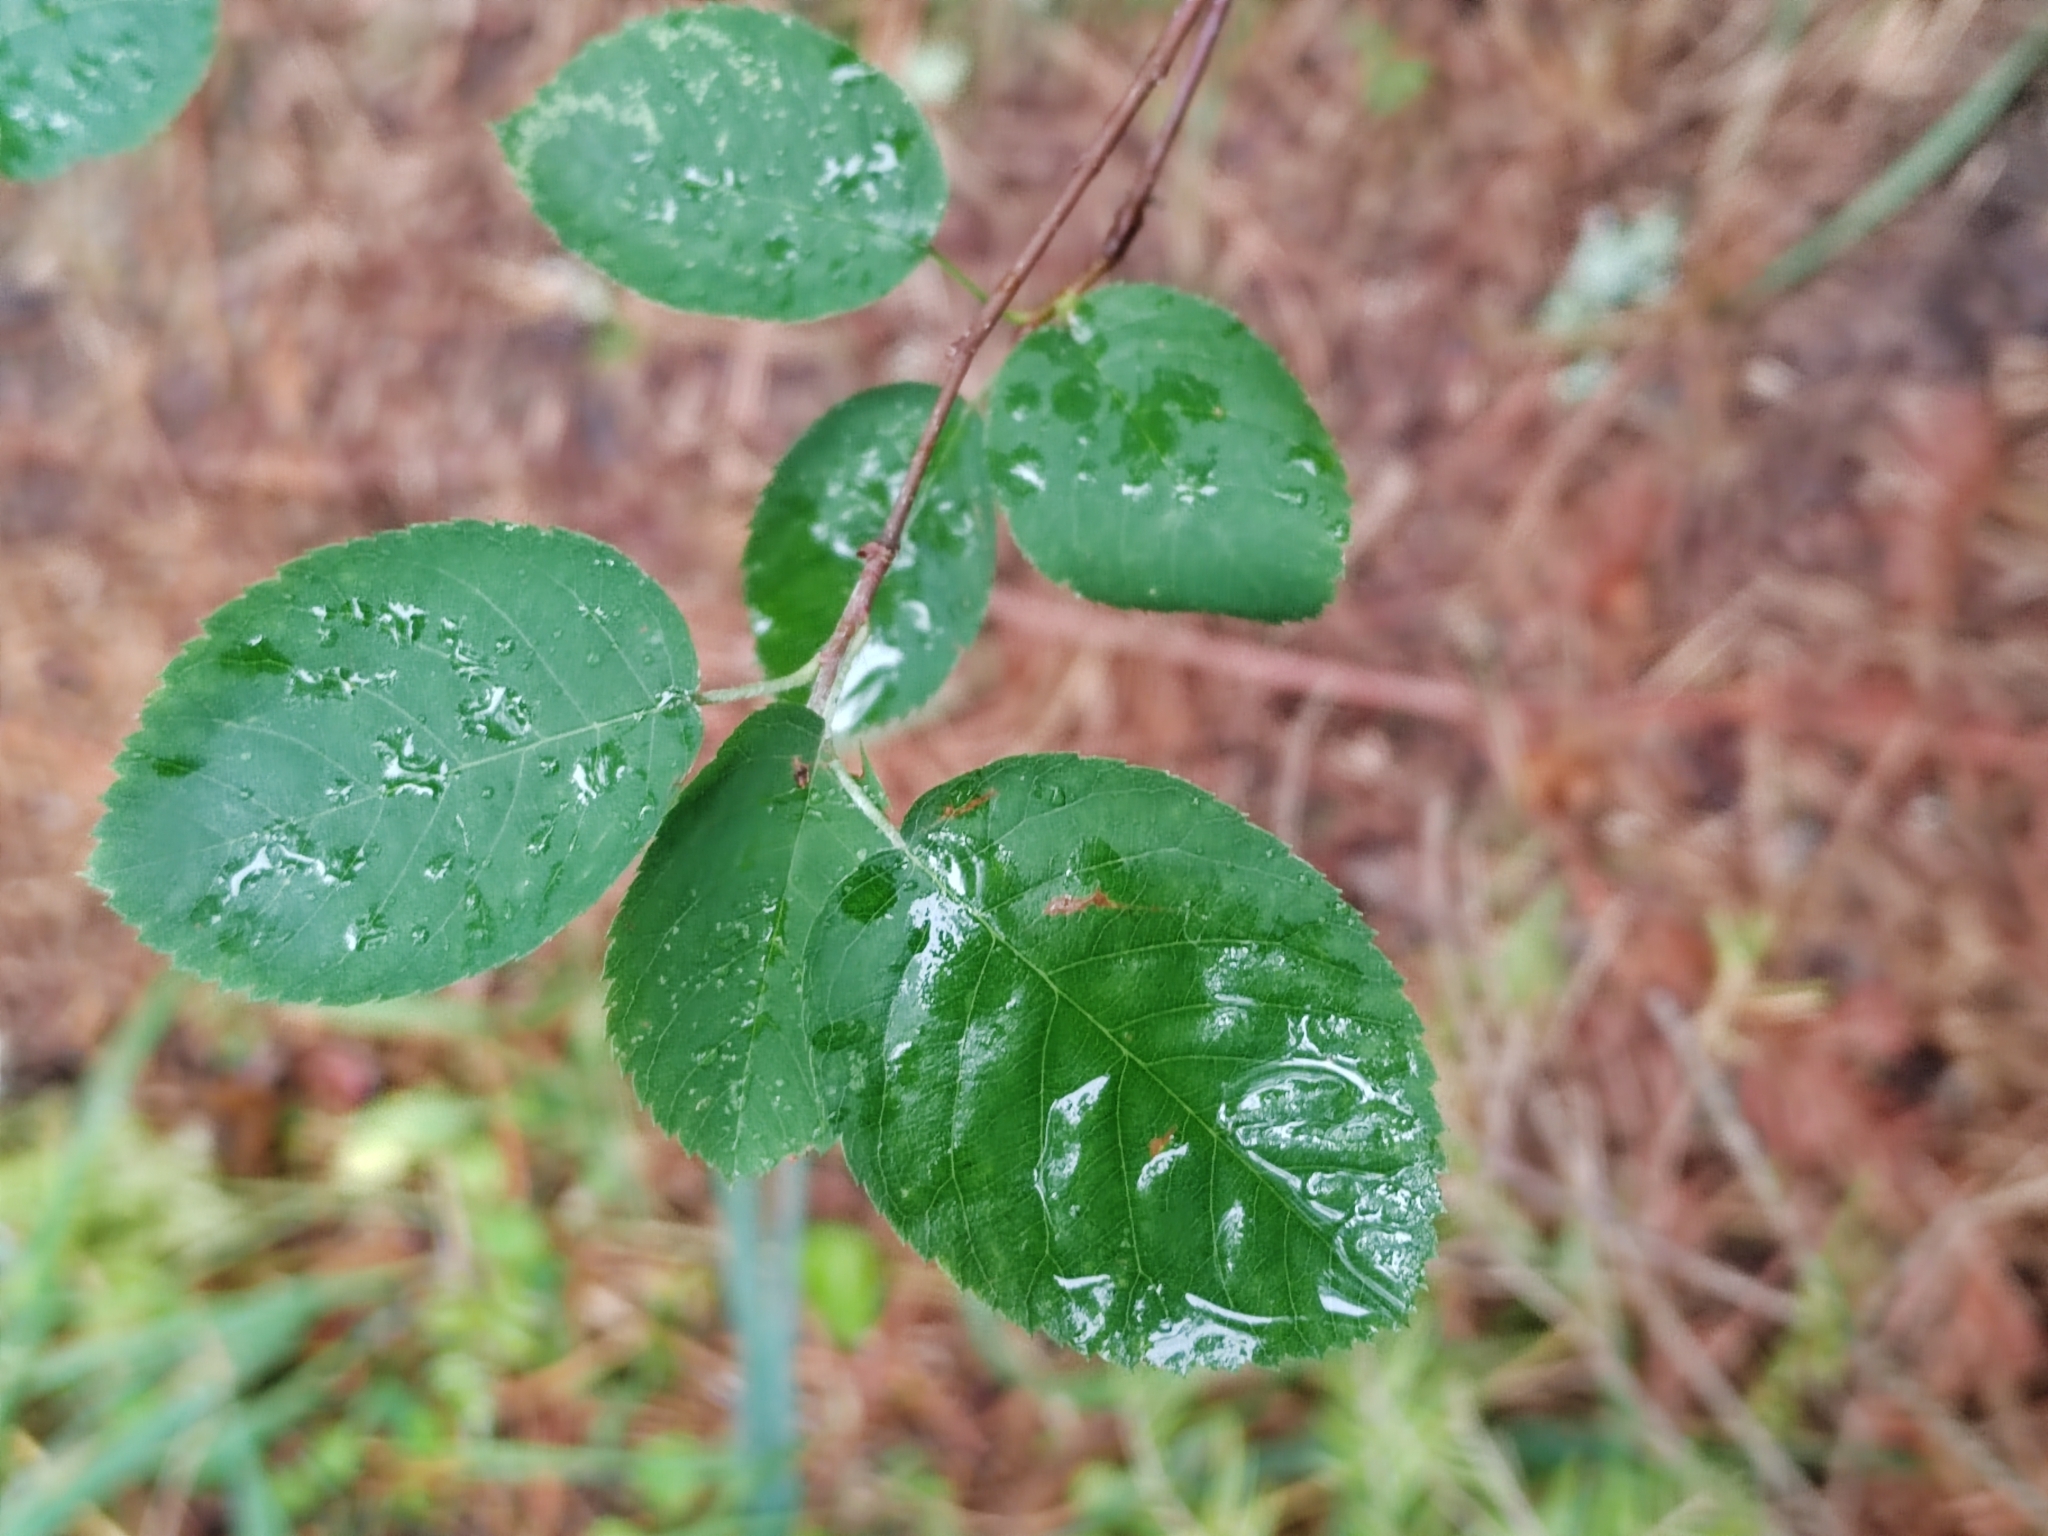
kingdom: Plantae
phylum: Tracheophyta
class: Magnoliopsida
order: Rosales
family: Rosaceae
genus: Amelanchier
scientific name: Amelanchier
